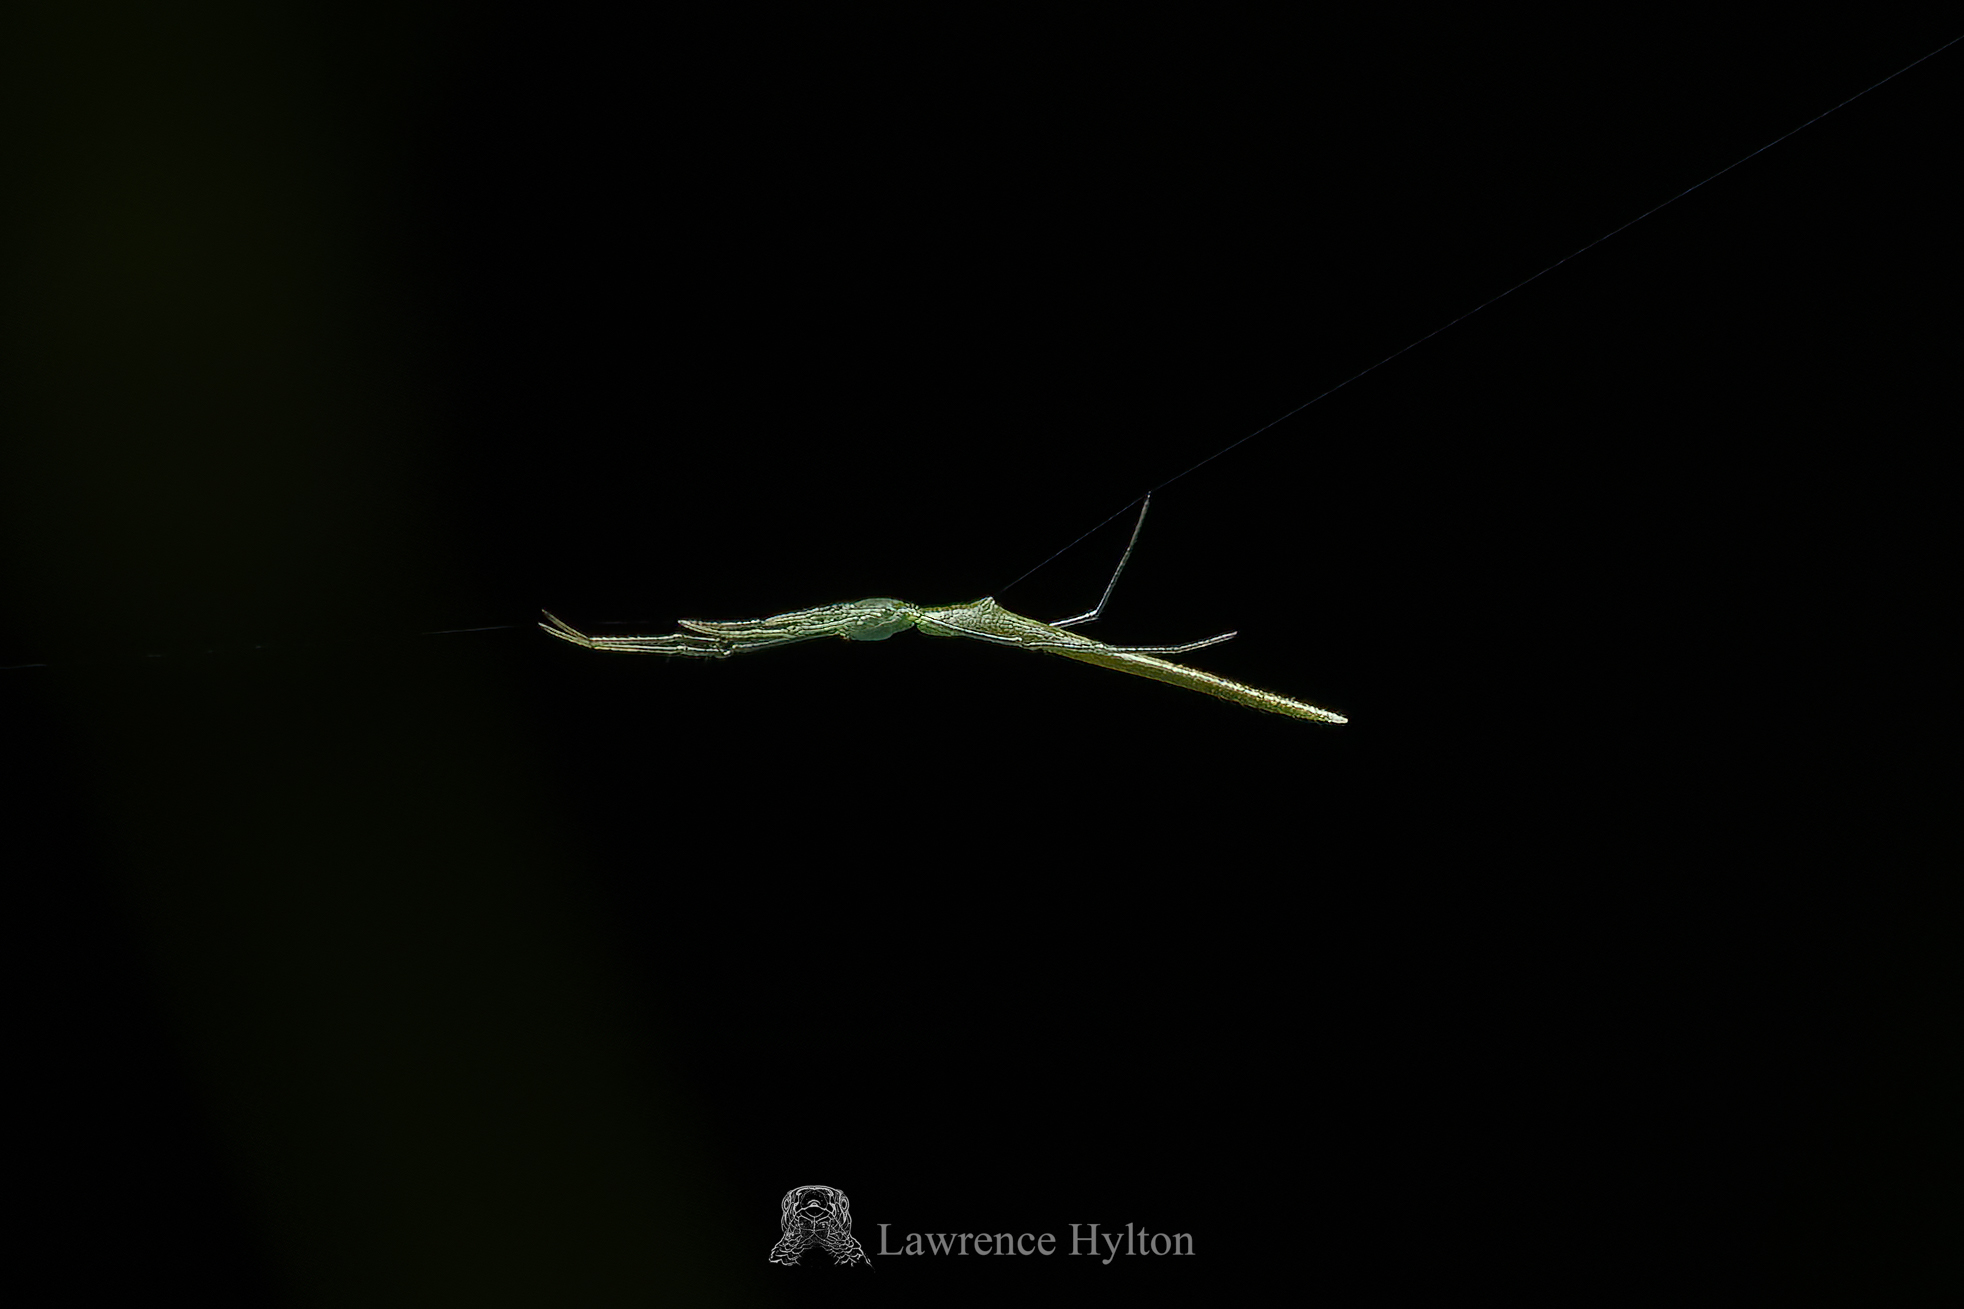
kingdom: Animalia
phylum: Arthropoda
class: Arachnida
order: Araneae
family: Theridiidae
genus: Ariamnes
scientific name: Ariamnes cylindrogaster
